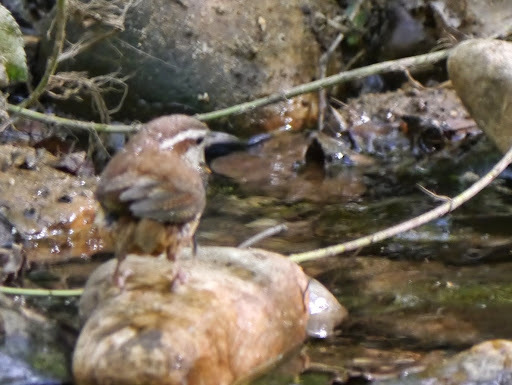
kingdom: Animalia
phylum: Chordata
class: Aves
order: Passeriformes
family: Troglodytidae
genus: Thryothorus
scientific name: Thryothorus ludovicianus
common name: Carolina wren
